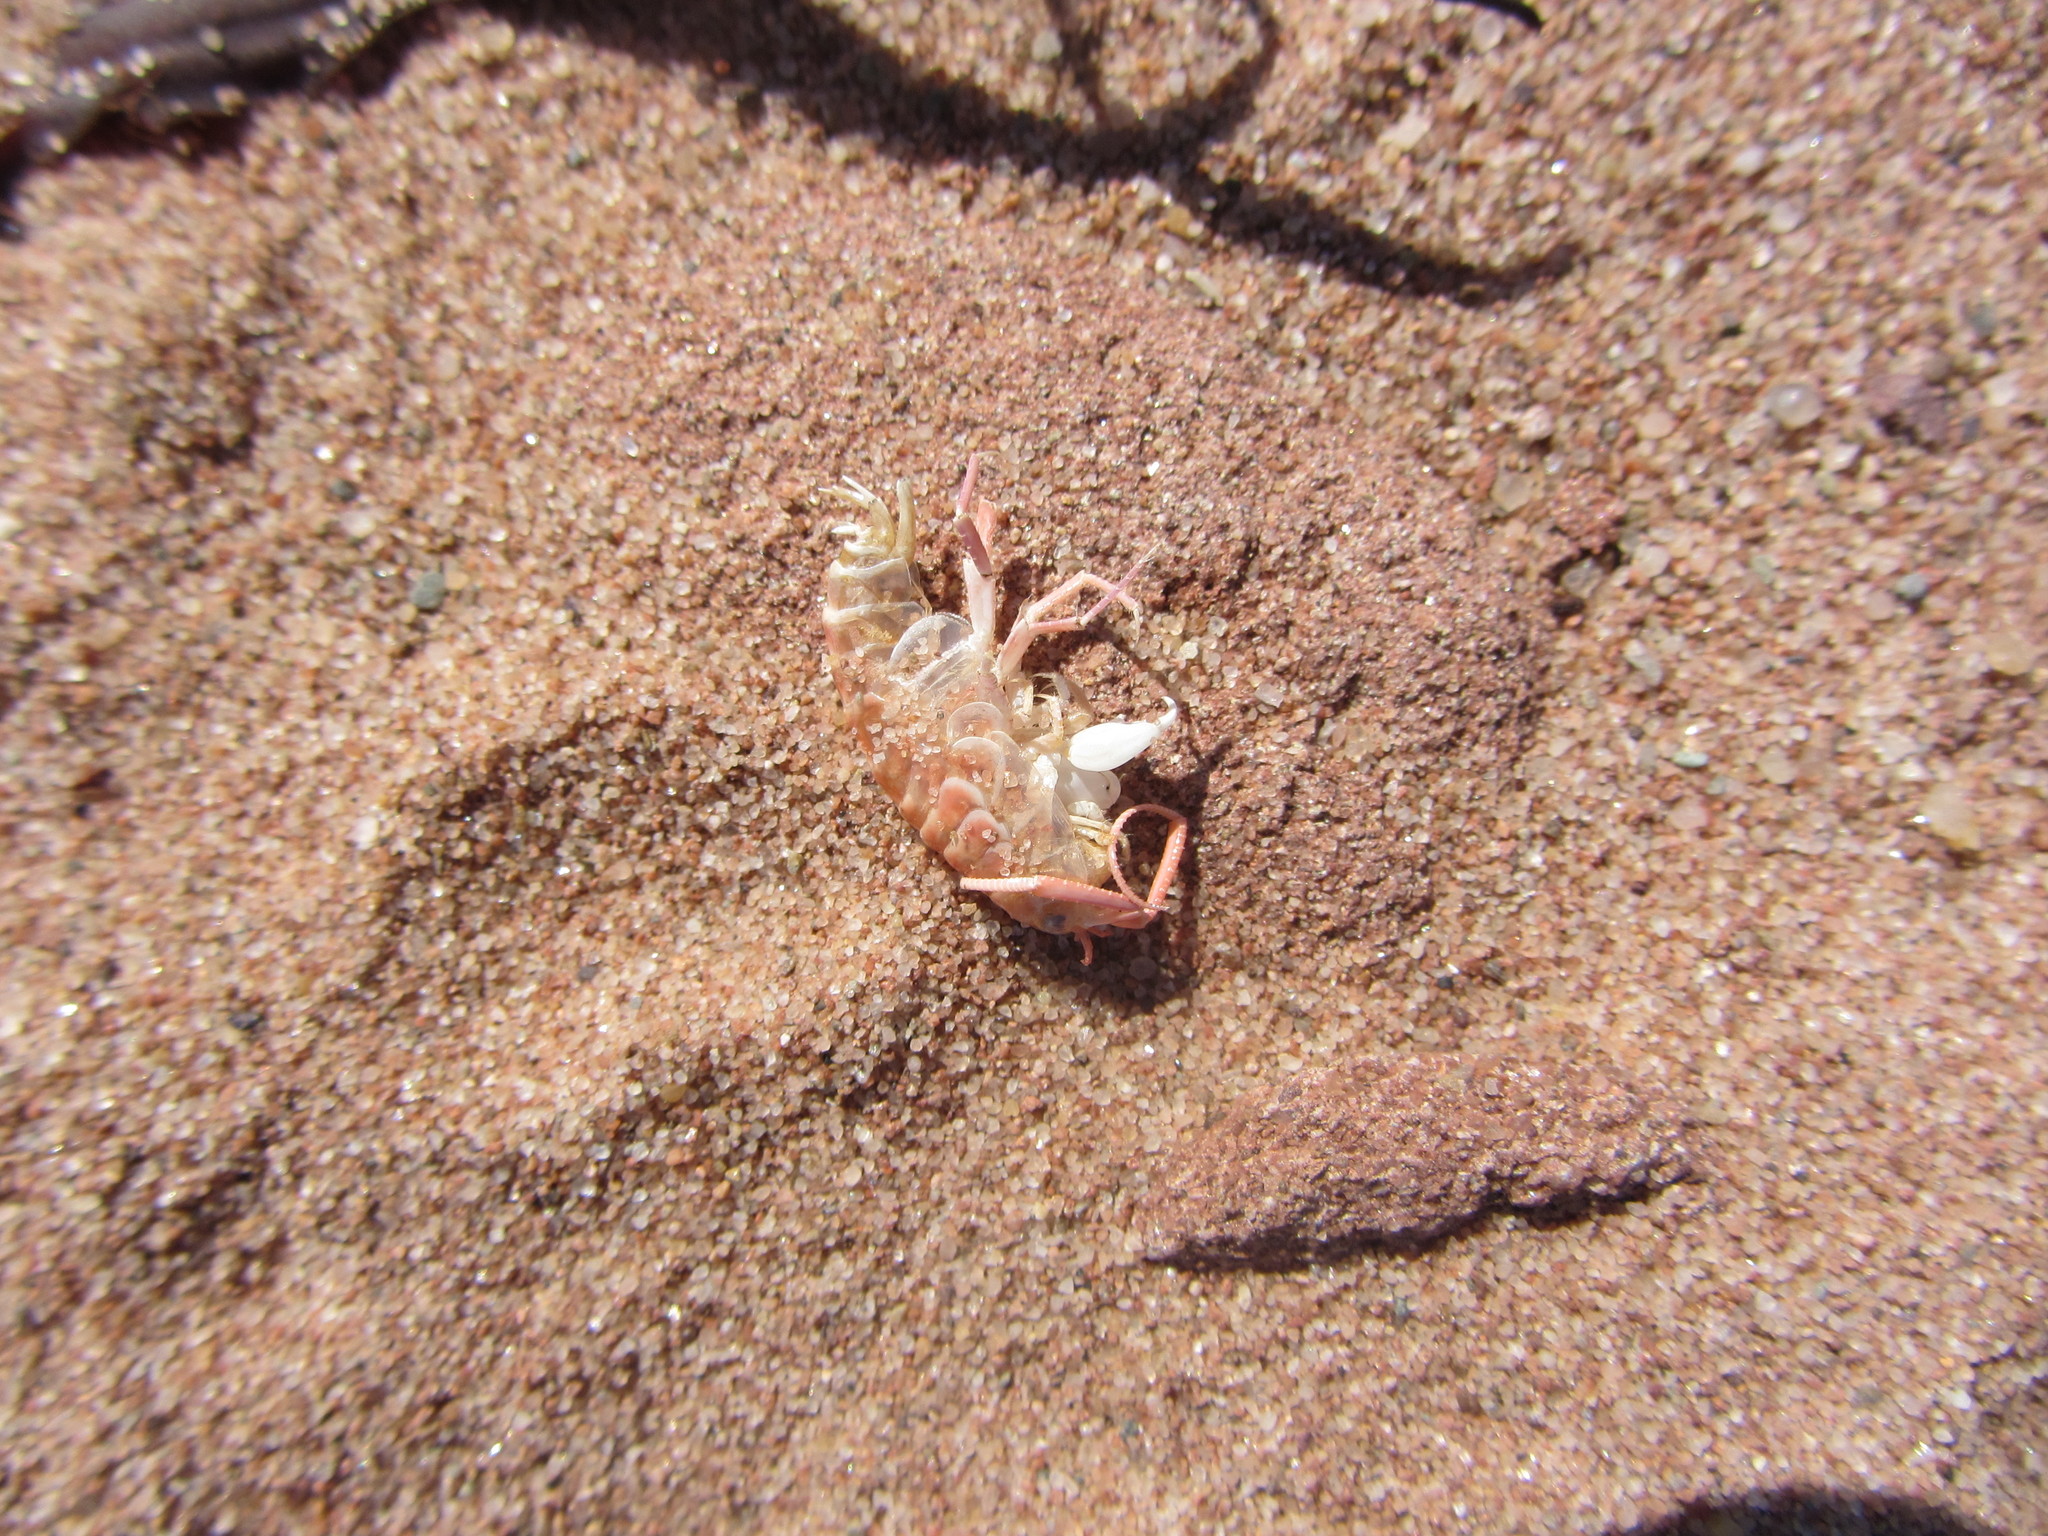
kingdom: Animalia
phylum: Arthropoda
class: Malacostraca
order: Amphipoda
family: Talitridae
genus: Americorchestia
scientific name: Americorchestia longicornis
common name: Common atlantic sandhopper
